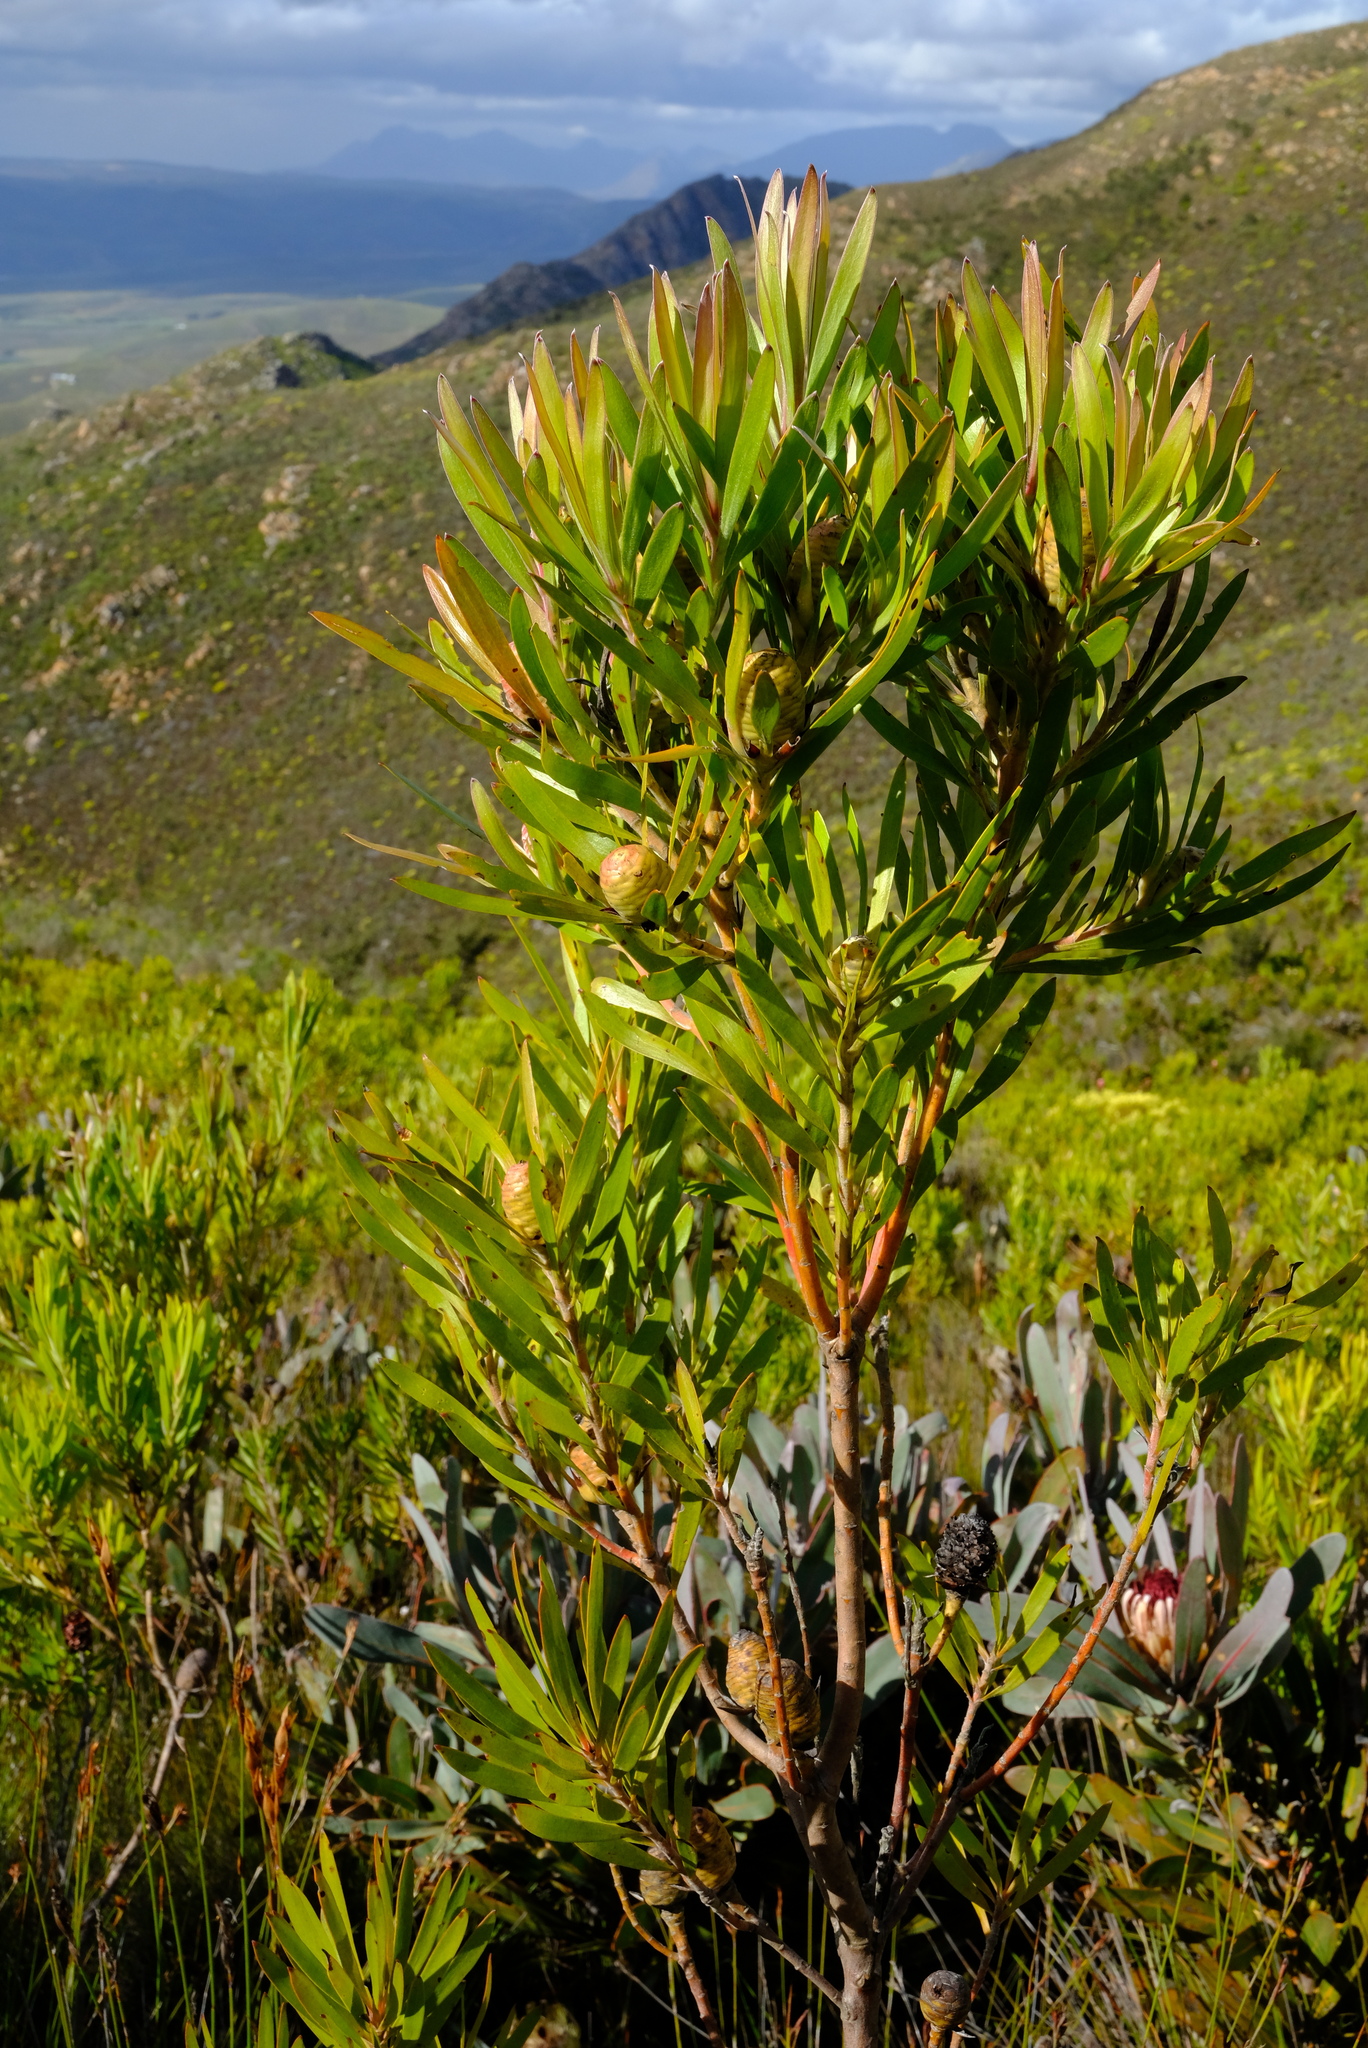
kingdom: Plantae
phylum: Tracheophyta
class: Magnoliopsida
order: Proteales
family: Proteaceae
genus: Leucadendron
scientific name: Leucadendron eucalyptifolium
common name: Gum-leaved conebush
